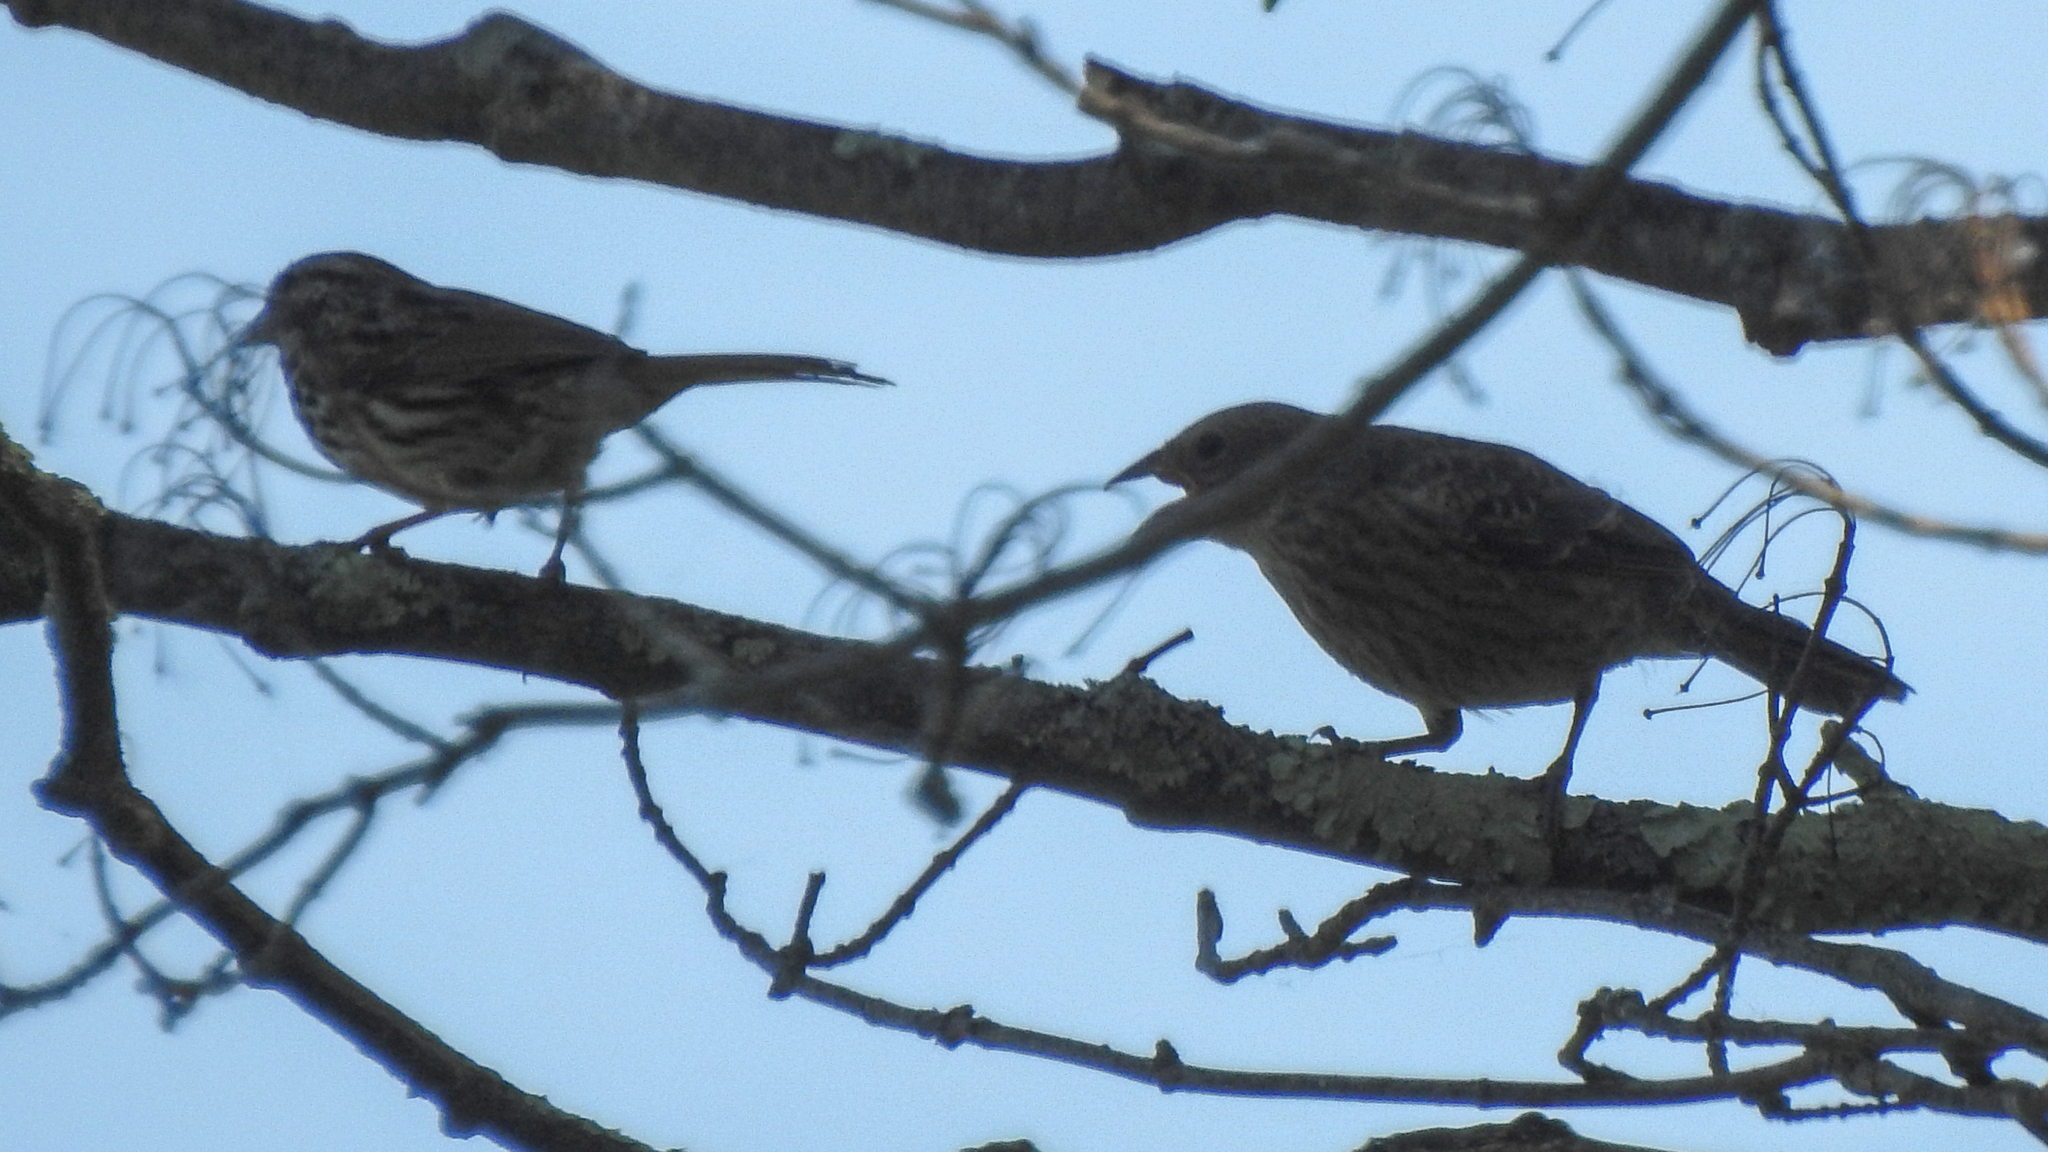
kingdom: Animalia
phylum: Chordata
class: Aves
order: Passeriformes
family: Passerellidae
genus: Melospiza
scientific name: Melospiza melodia
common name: Song sparrow
